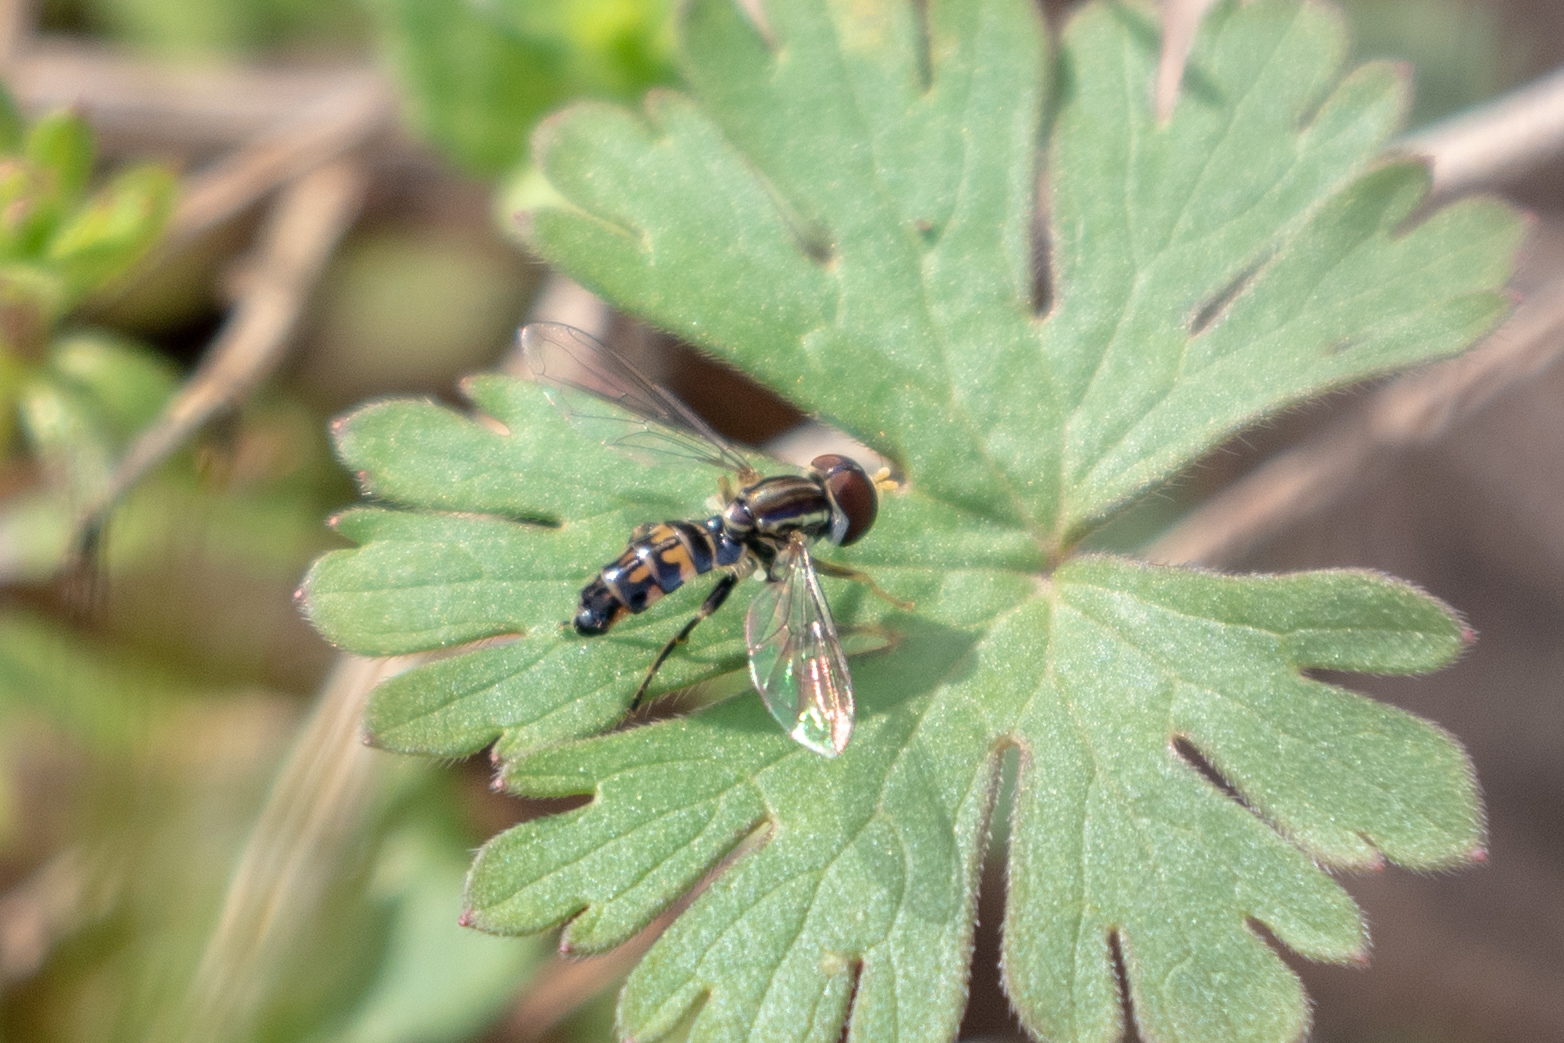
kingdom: Animalia
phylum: Arthropoda
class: Insecta
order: Diptera
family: Syrphidae
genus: Toxomerus
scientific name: Toxomerus geminatus
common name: Eastern calligrapher
